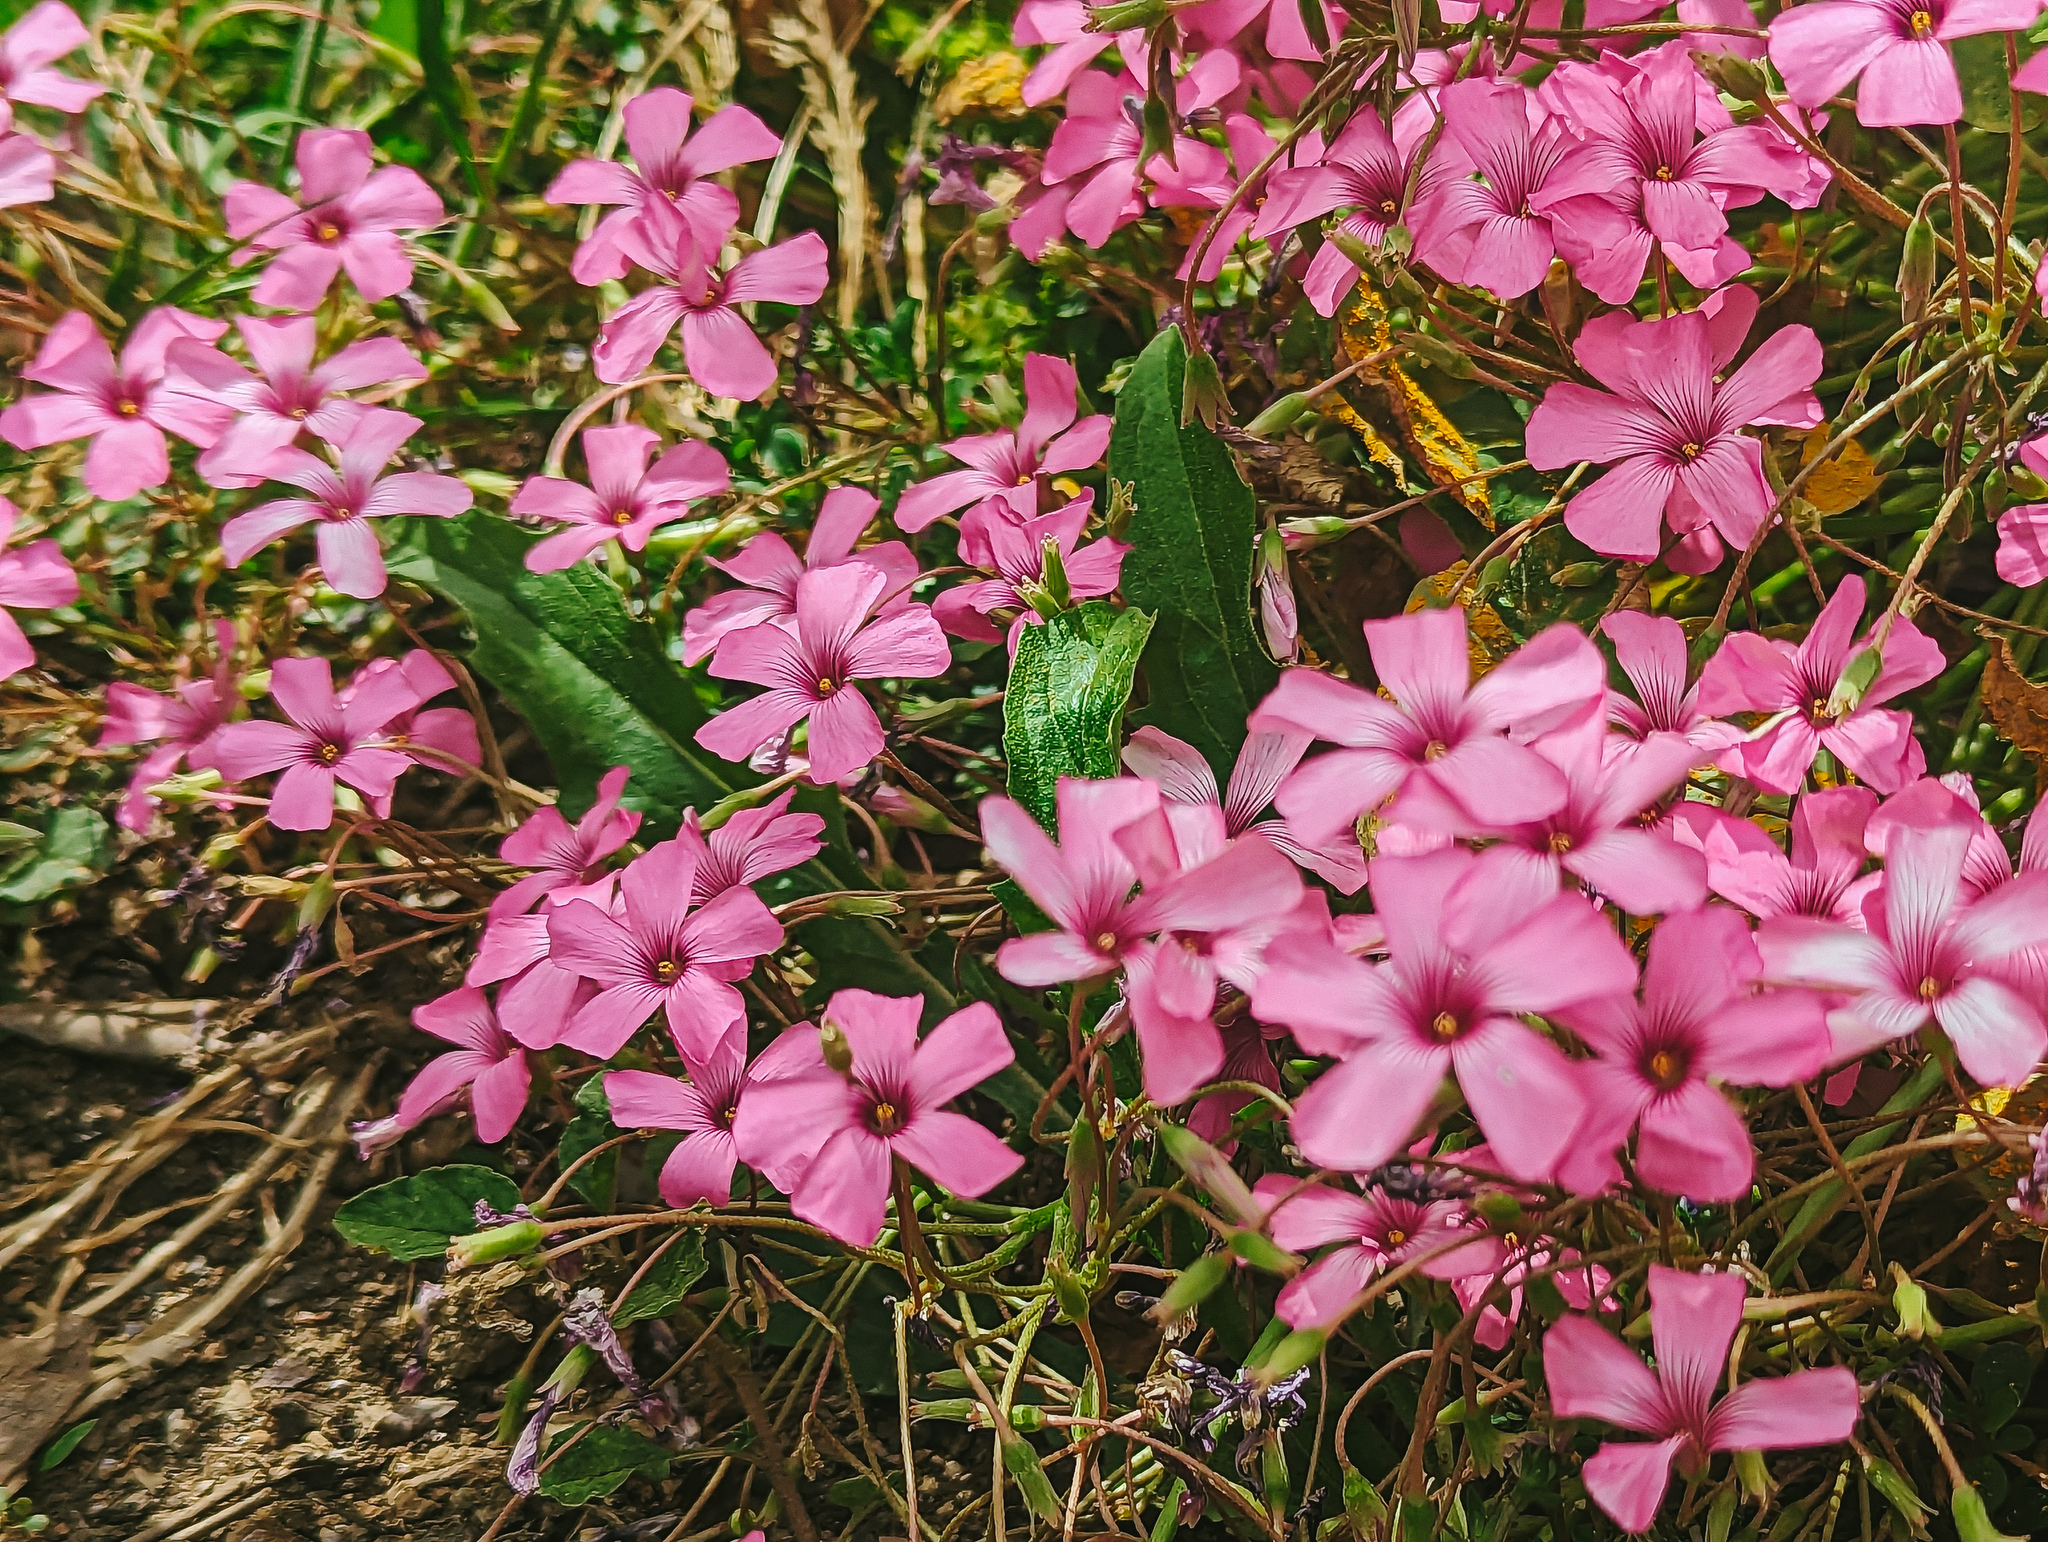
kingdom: Plantae
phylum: Tracheophyta
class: Magnoliopsida
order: Oxalidales
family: Oxalidaceae
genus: Oxalis
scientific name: Oxalis articulata
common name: Pink-sorrel
